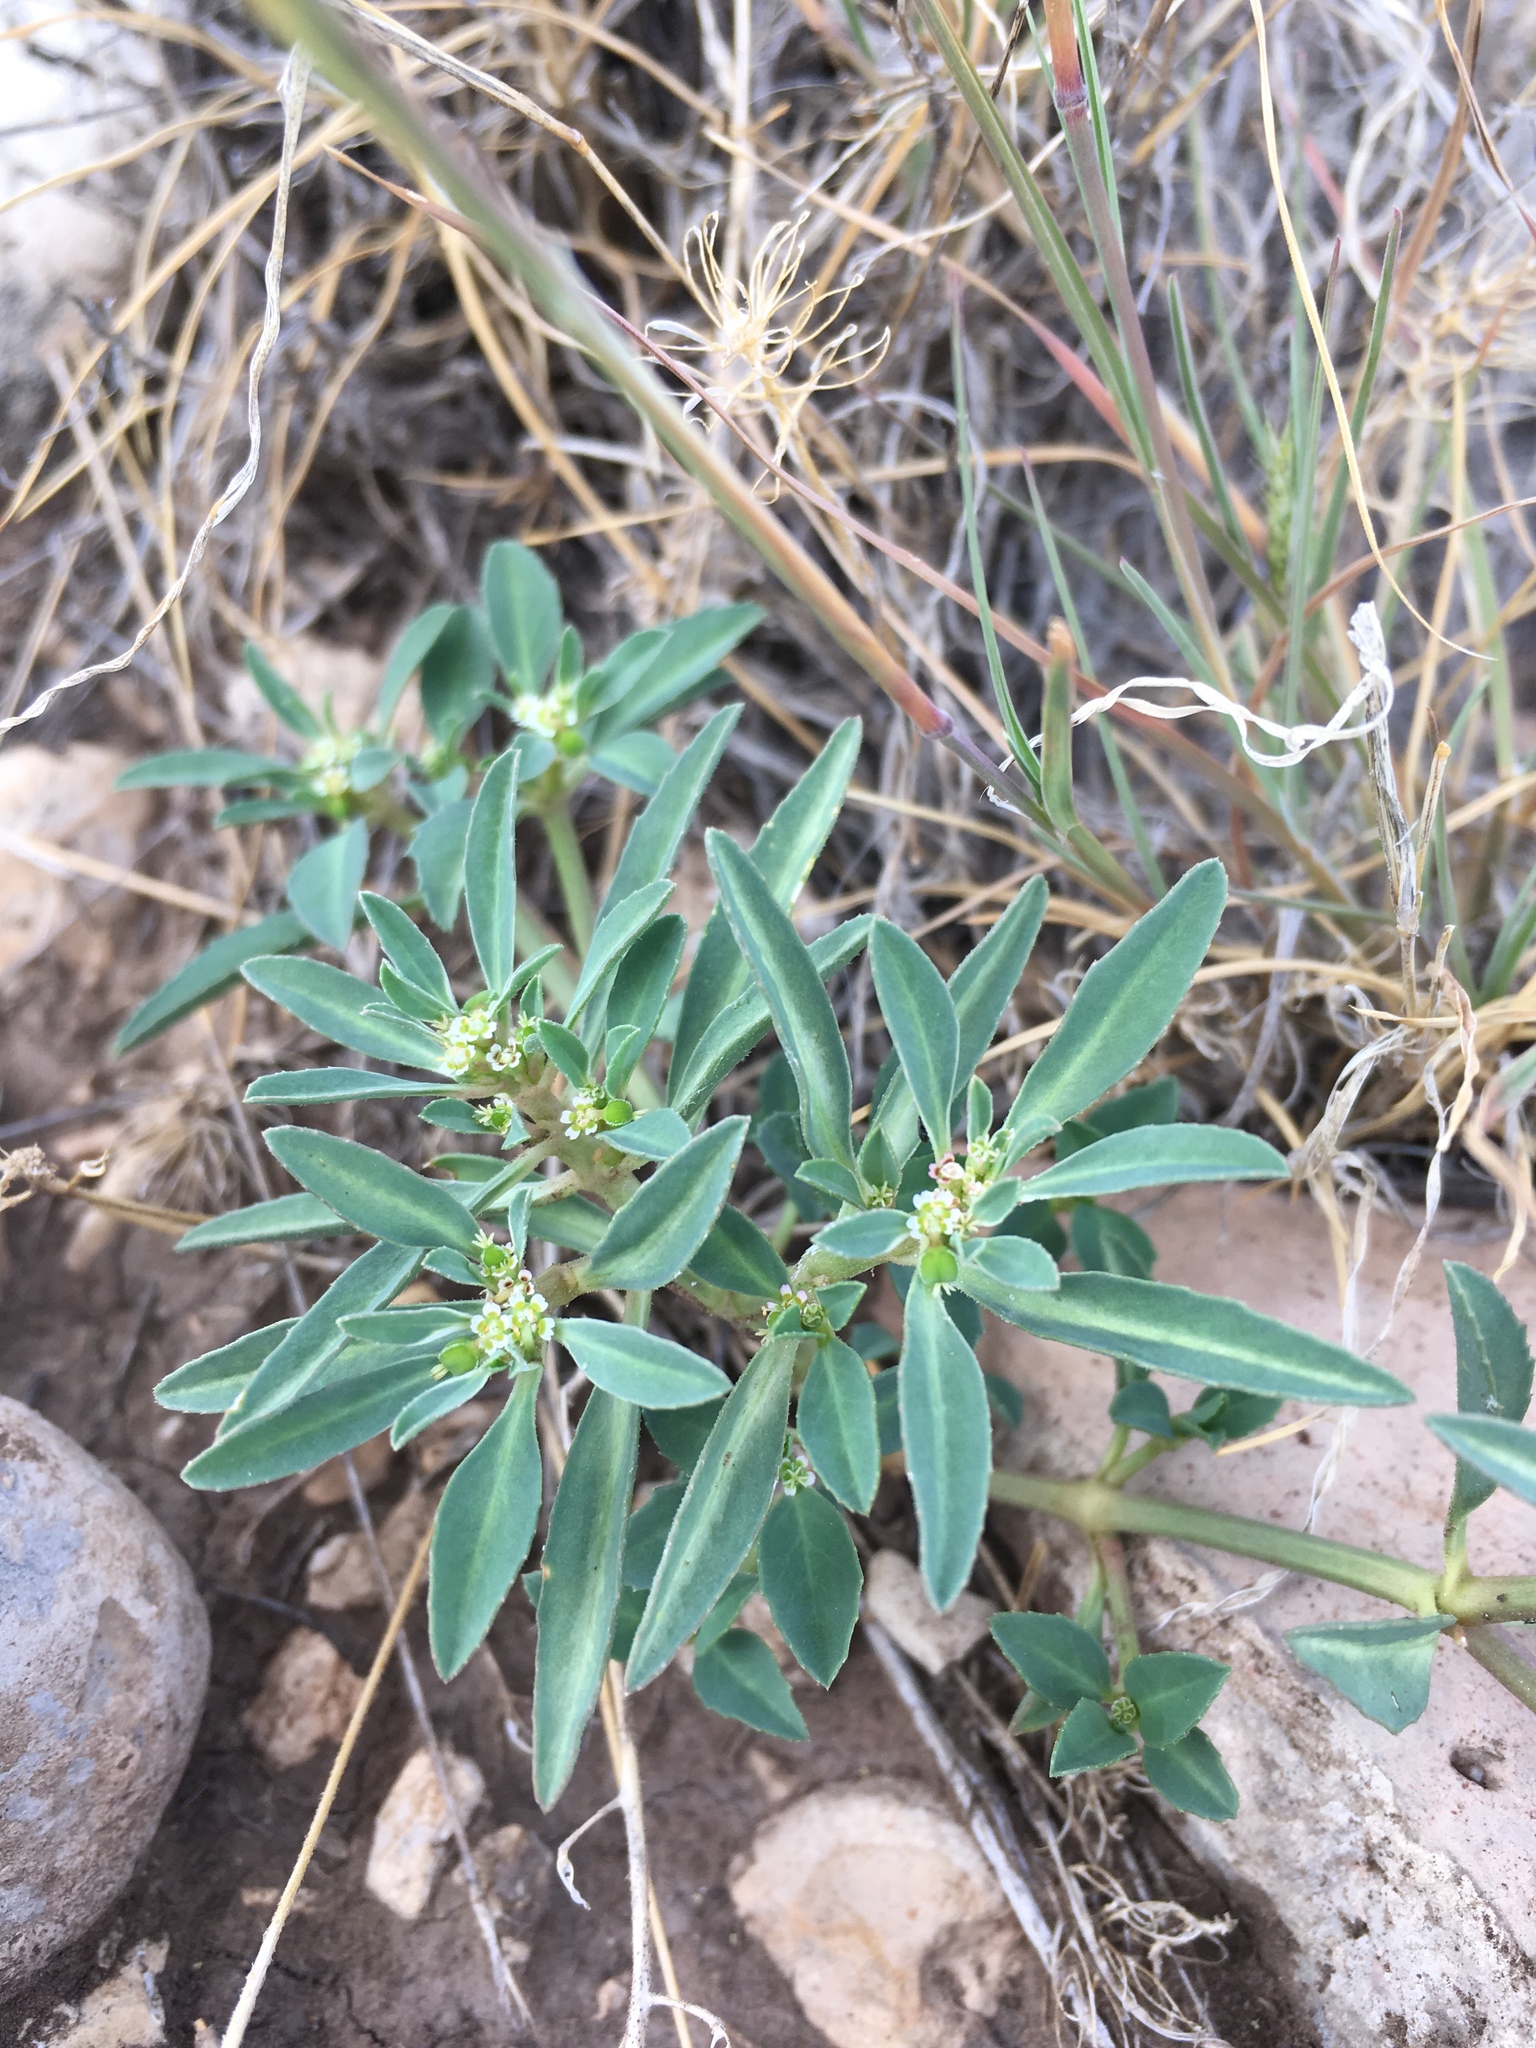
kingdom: Plantae
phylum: Tracheophyta
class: Magnoliopsida
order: Malpighiales
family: Euphorbiaceae
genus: Euphorbia
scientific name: Euphorbia exstipulata
